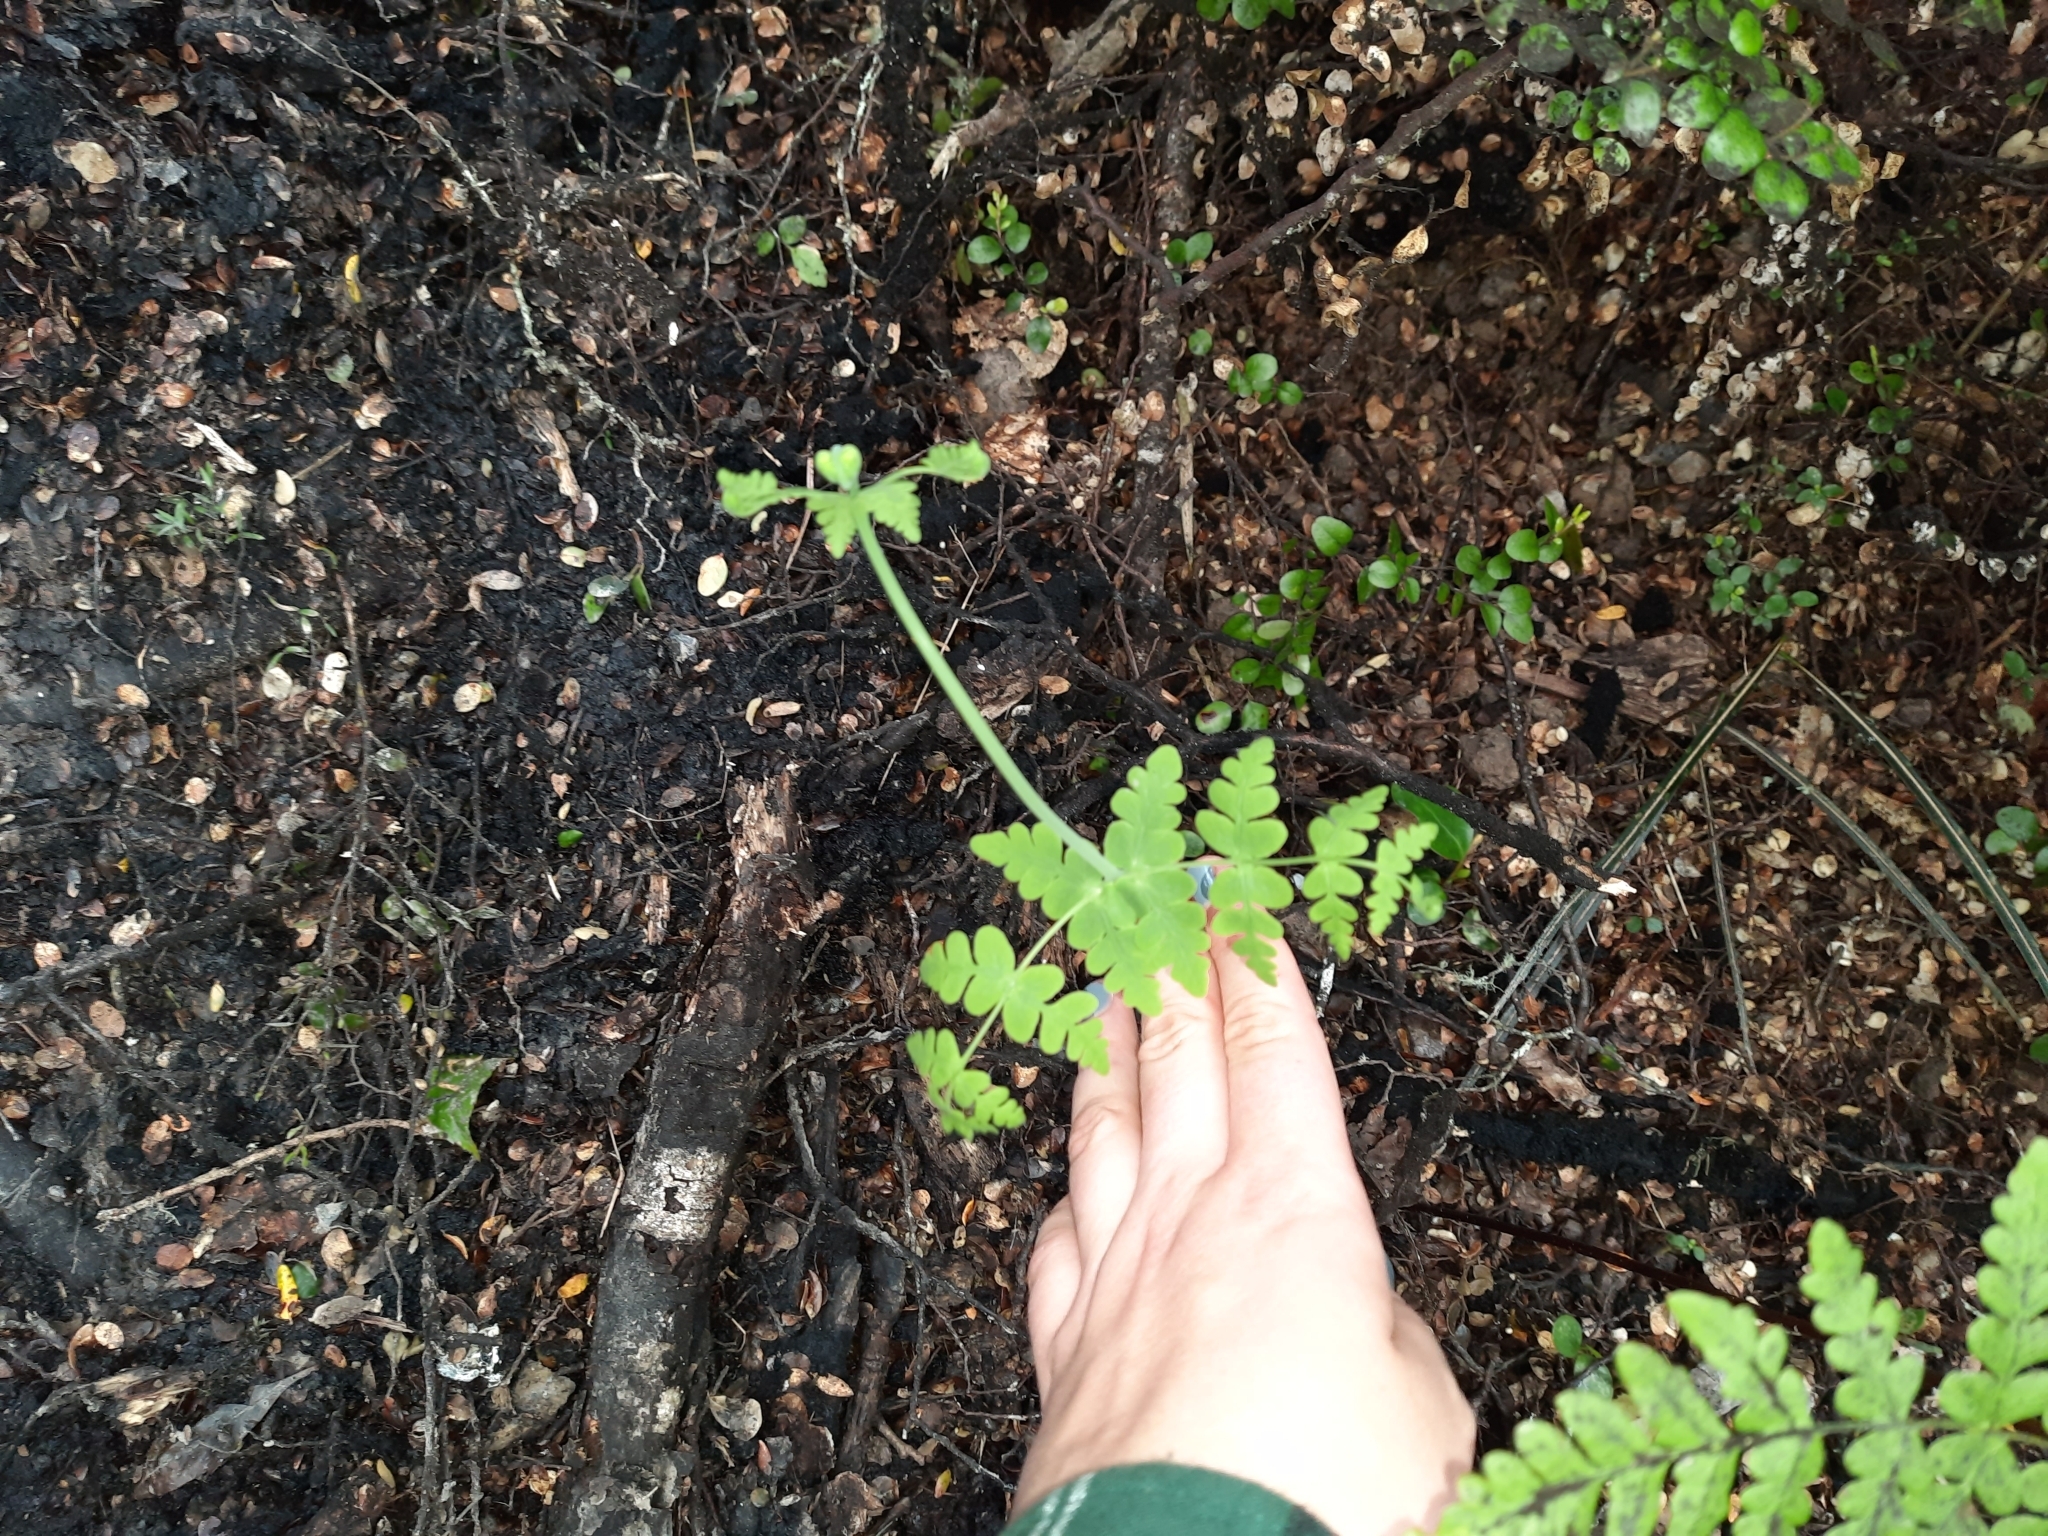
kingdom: Plantae
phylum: Tracheophyta
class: Polypodiopsida
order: Polypodiales
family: Dennstaedtiaceae
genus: Histiopteris
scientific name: Histiopteris incisa
